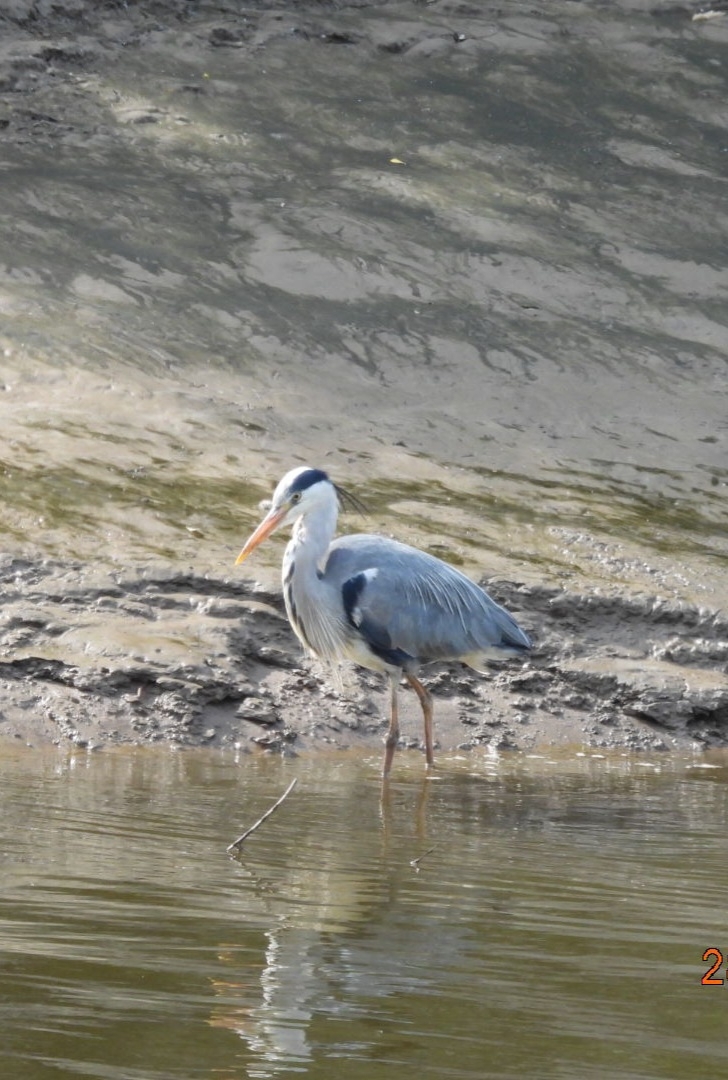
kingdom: Animalia
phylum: Chordata
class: Aves
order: Pelecaniformes
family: Ardeidae
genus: Ardea
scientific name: Ardea cinerea
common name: Grey heron
